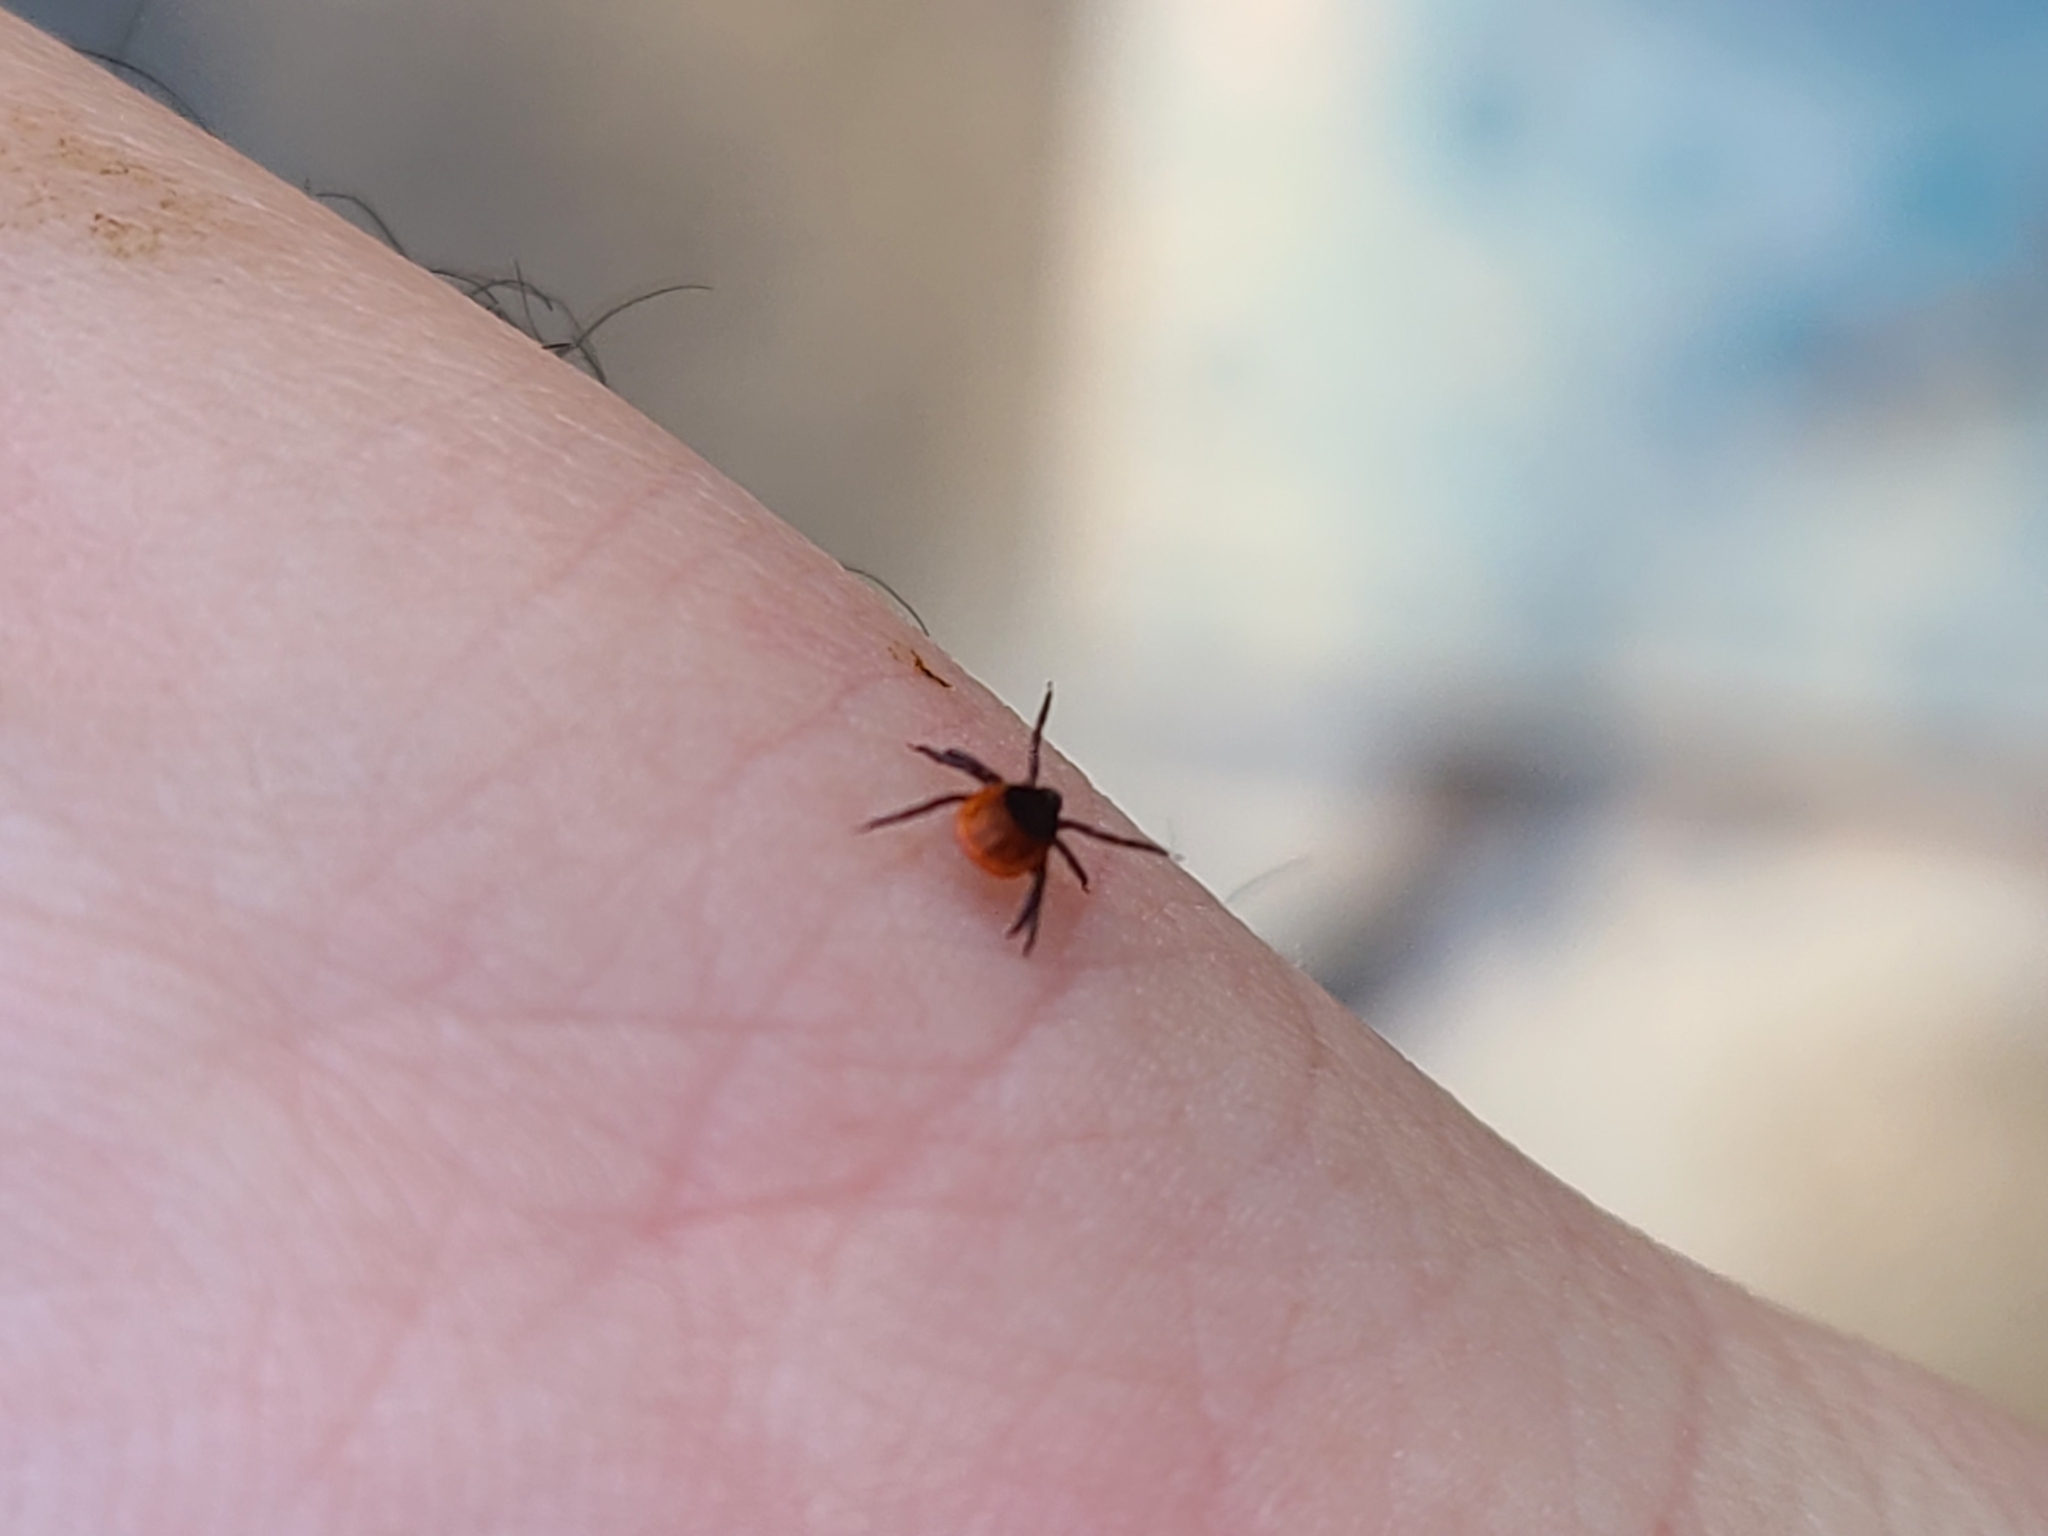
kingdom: Animalia
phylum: Arthropoda
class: Arachnida
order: Ixodida
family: Ixodidae
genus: Ixodes
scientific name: Ixodes scapularis
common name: Black legged tick
